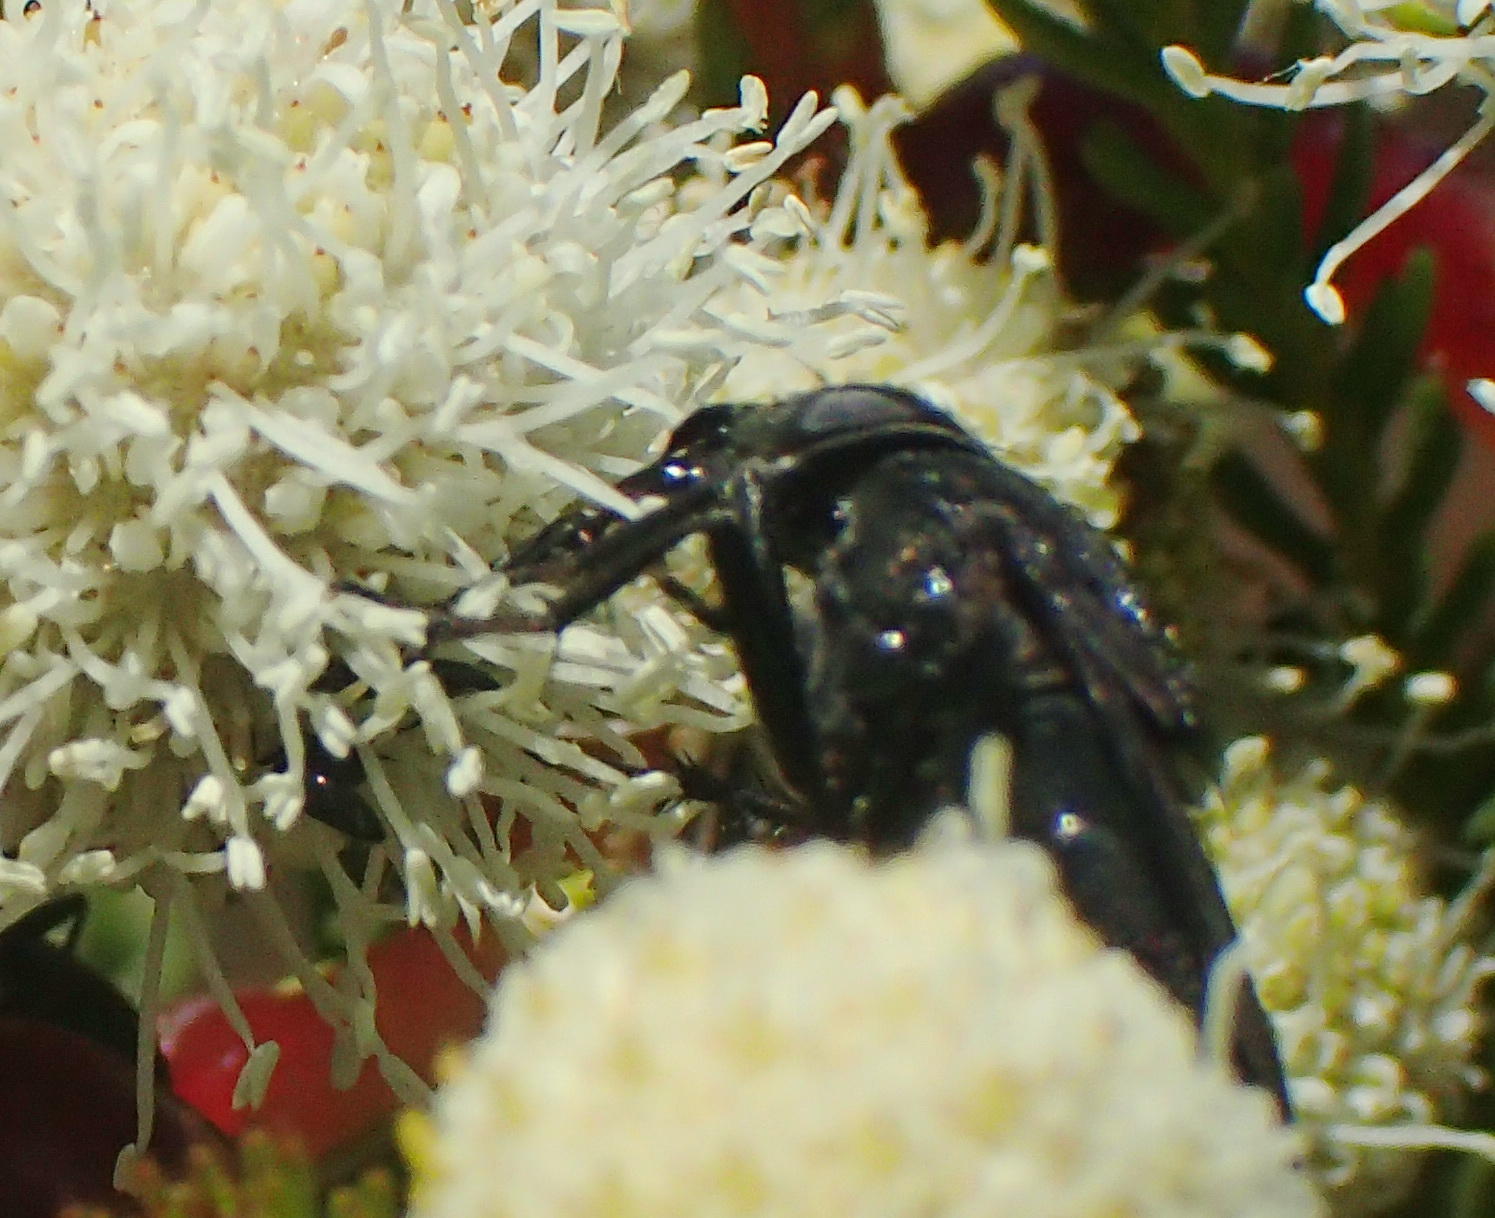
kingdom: Animalia
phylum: Arthropoda
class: Insecta
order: Diptera
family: Calliphoridae
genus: Cosmina
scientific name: Cosmina fuscipennis
